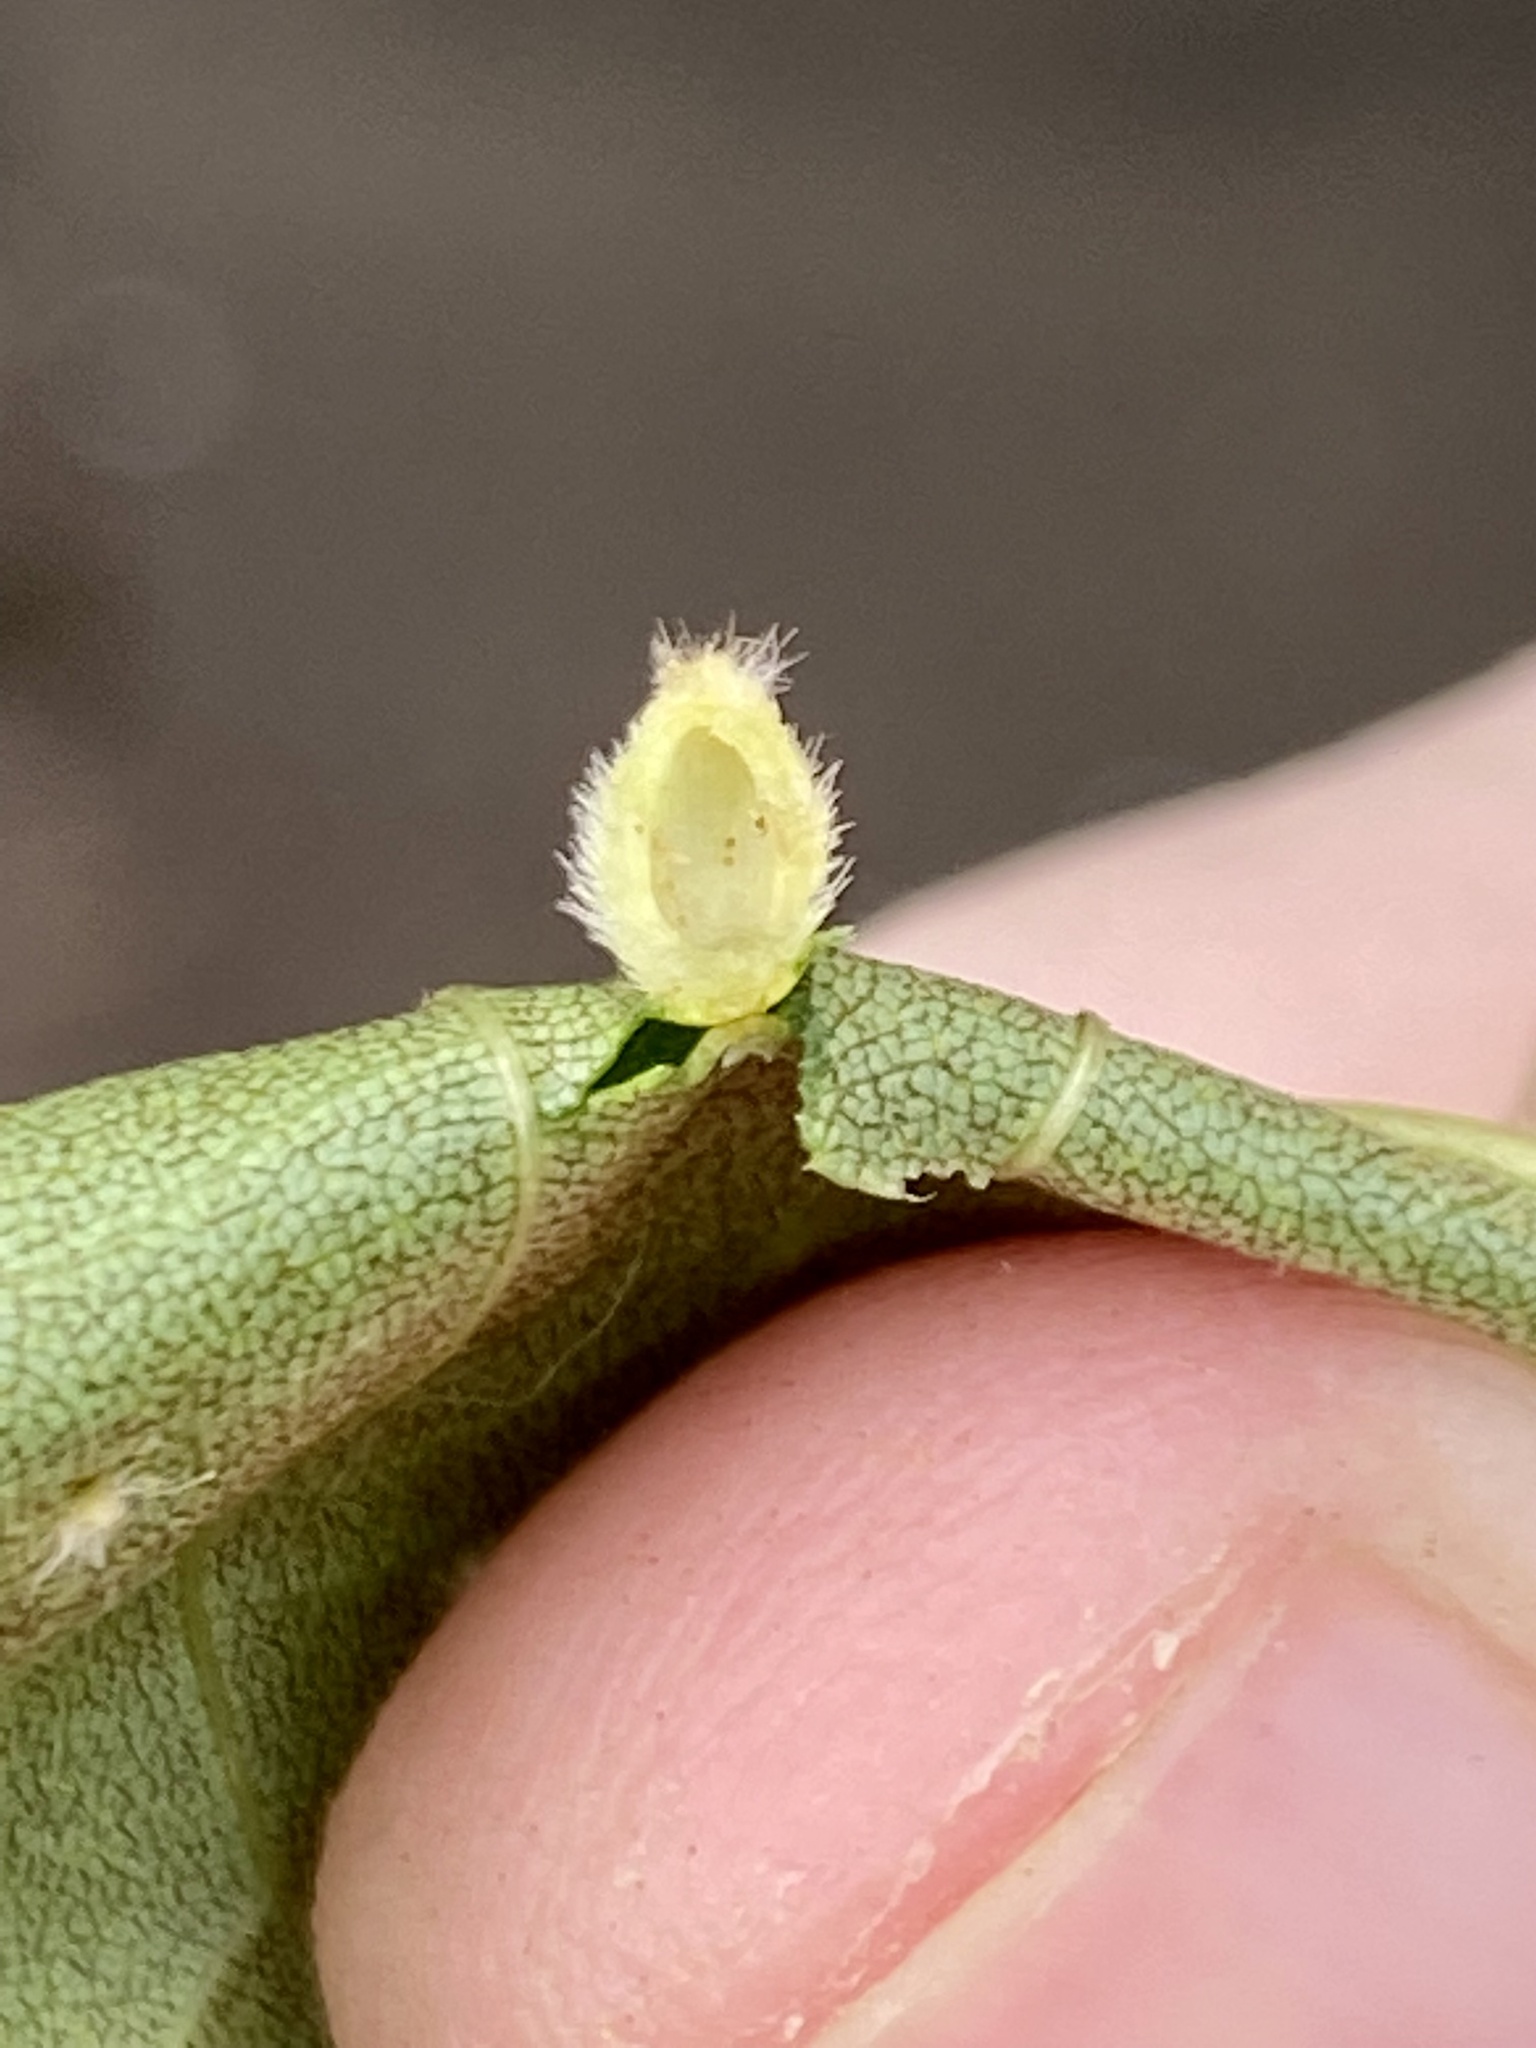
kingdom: Animalia
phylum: Arthropoda
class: Insecta
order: Diptera
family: Cecidomyiidae
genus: Caryomyia
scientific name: Caryomyia hirtidolium
